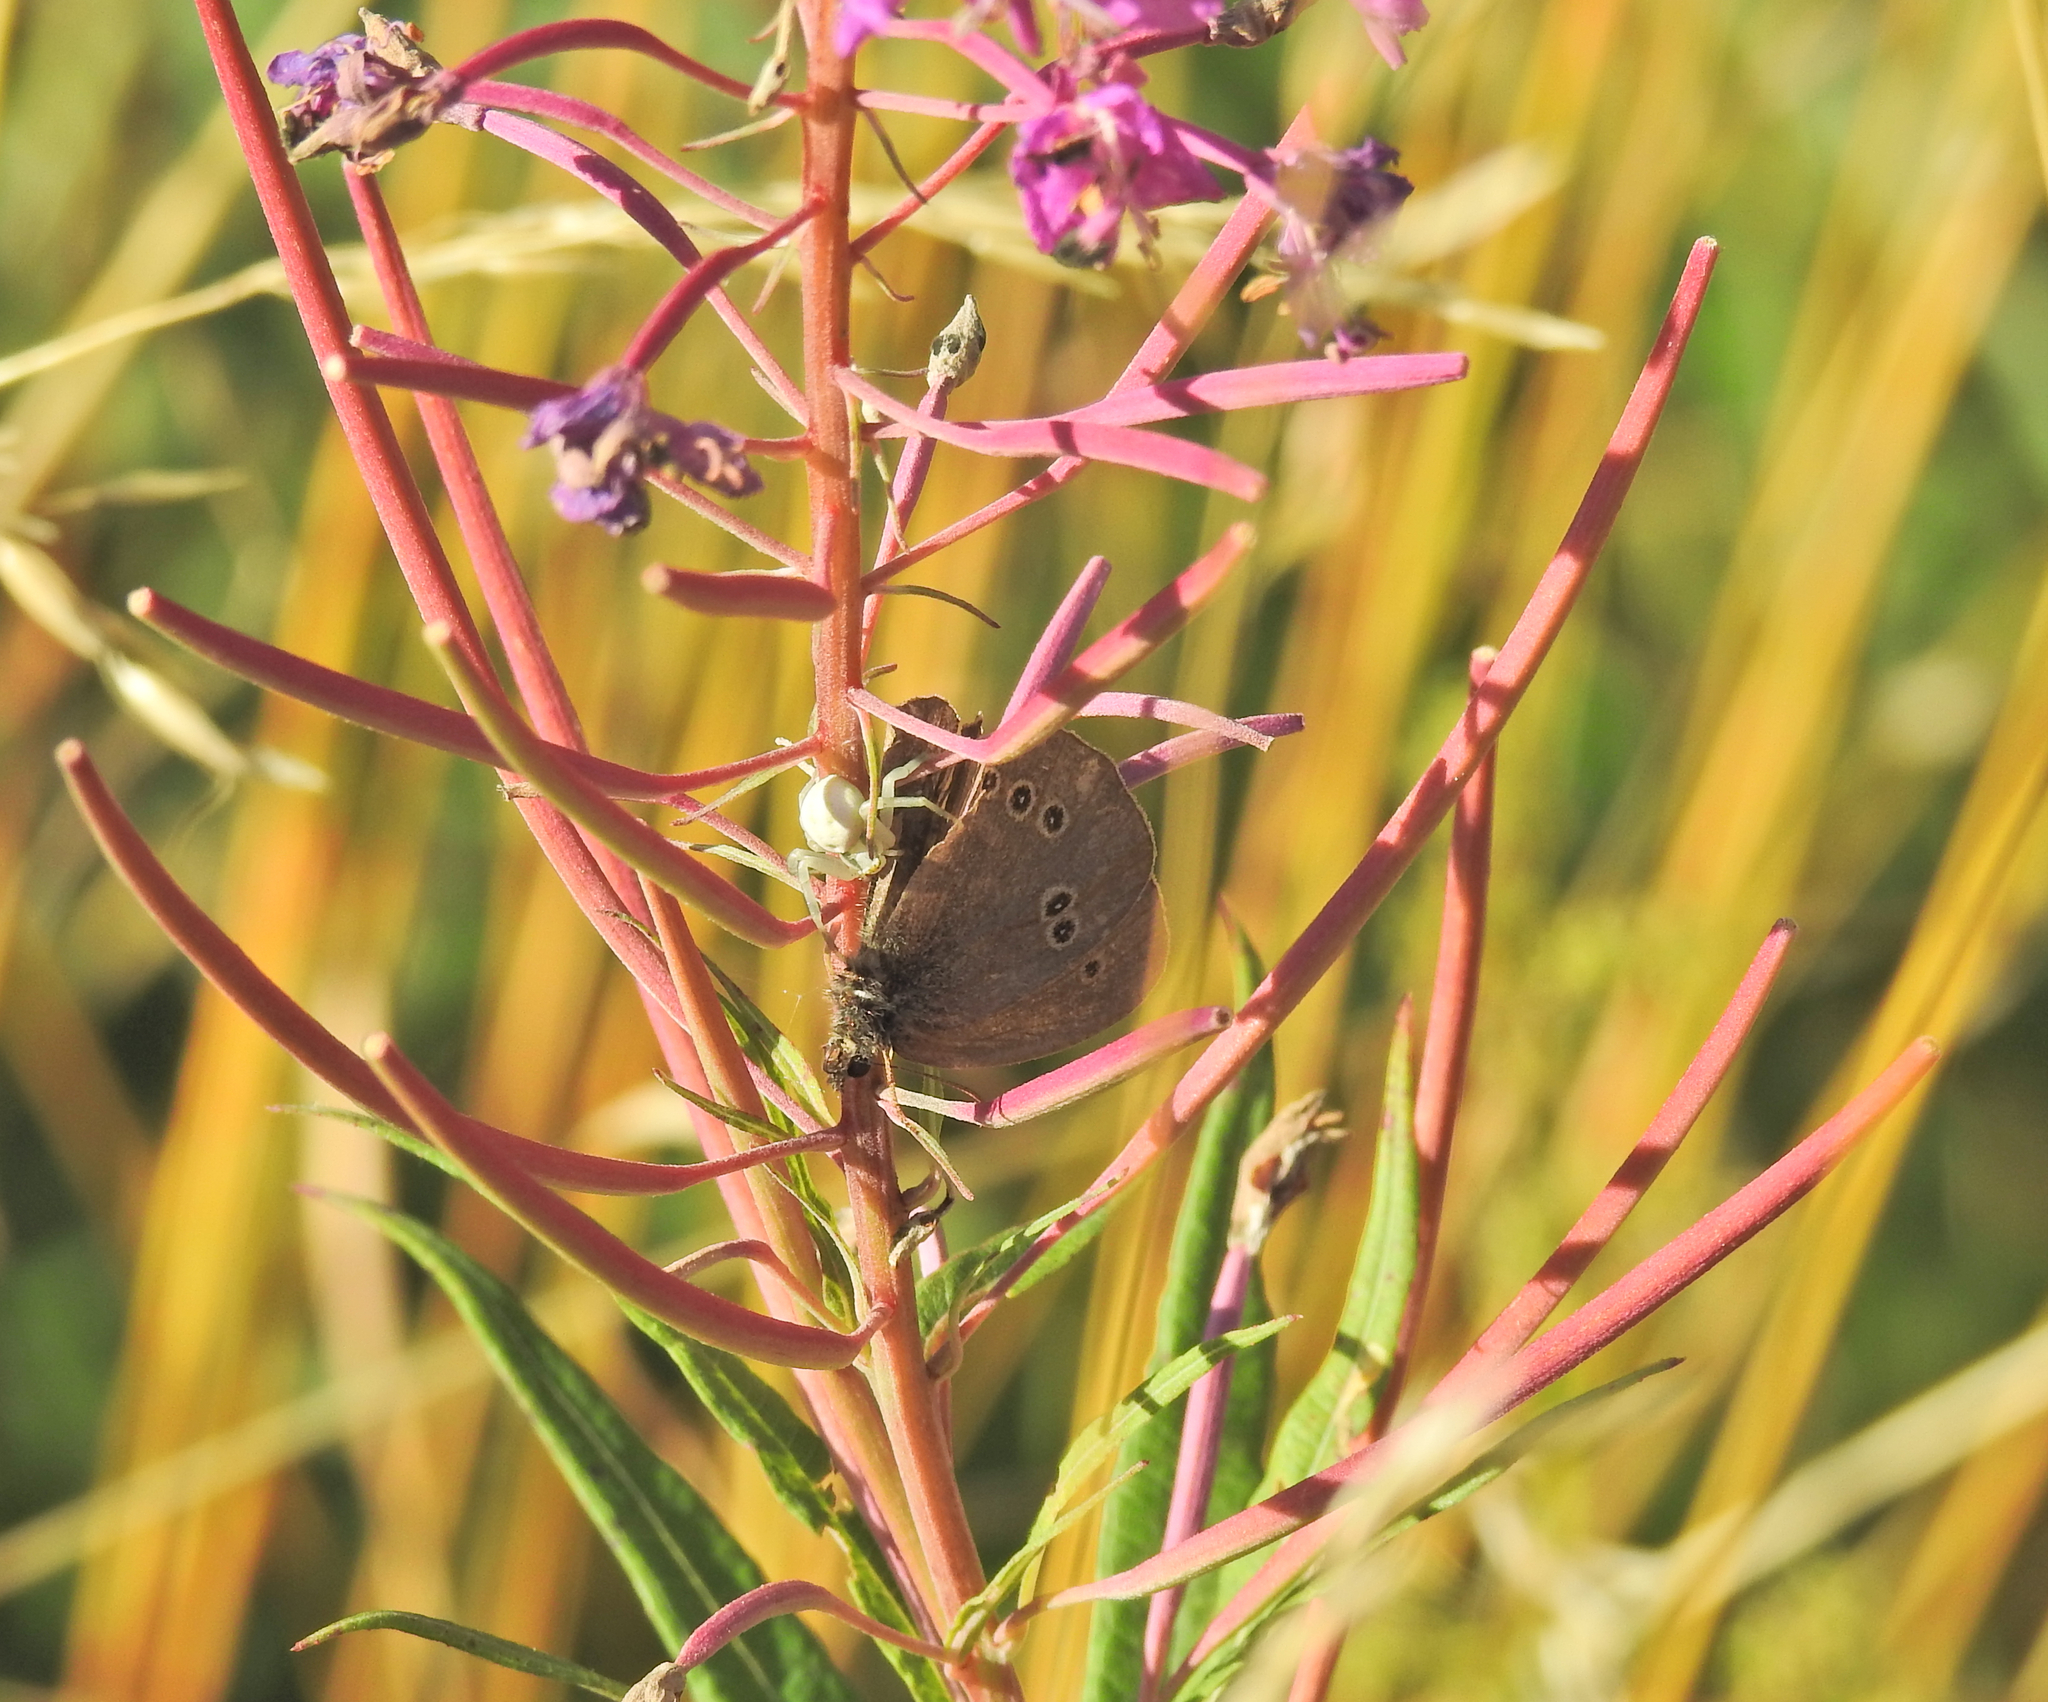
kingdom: Animalia
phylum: Arthropoda
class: Arachnida
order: Araneae
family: Thomisidae
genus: Misumena
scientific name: Misumena vatia
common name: Goldenrod crab spider
